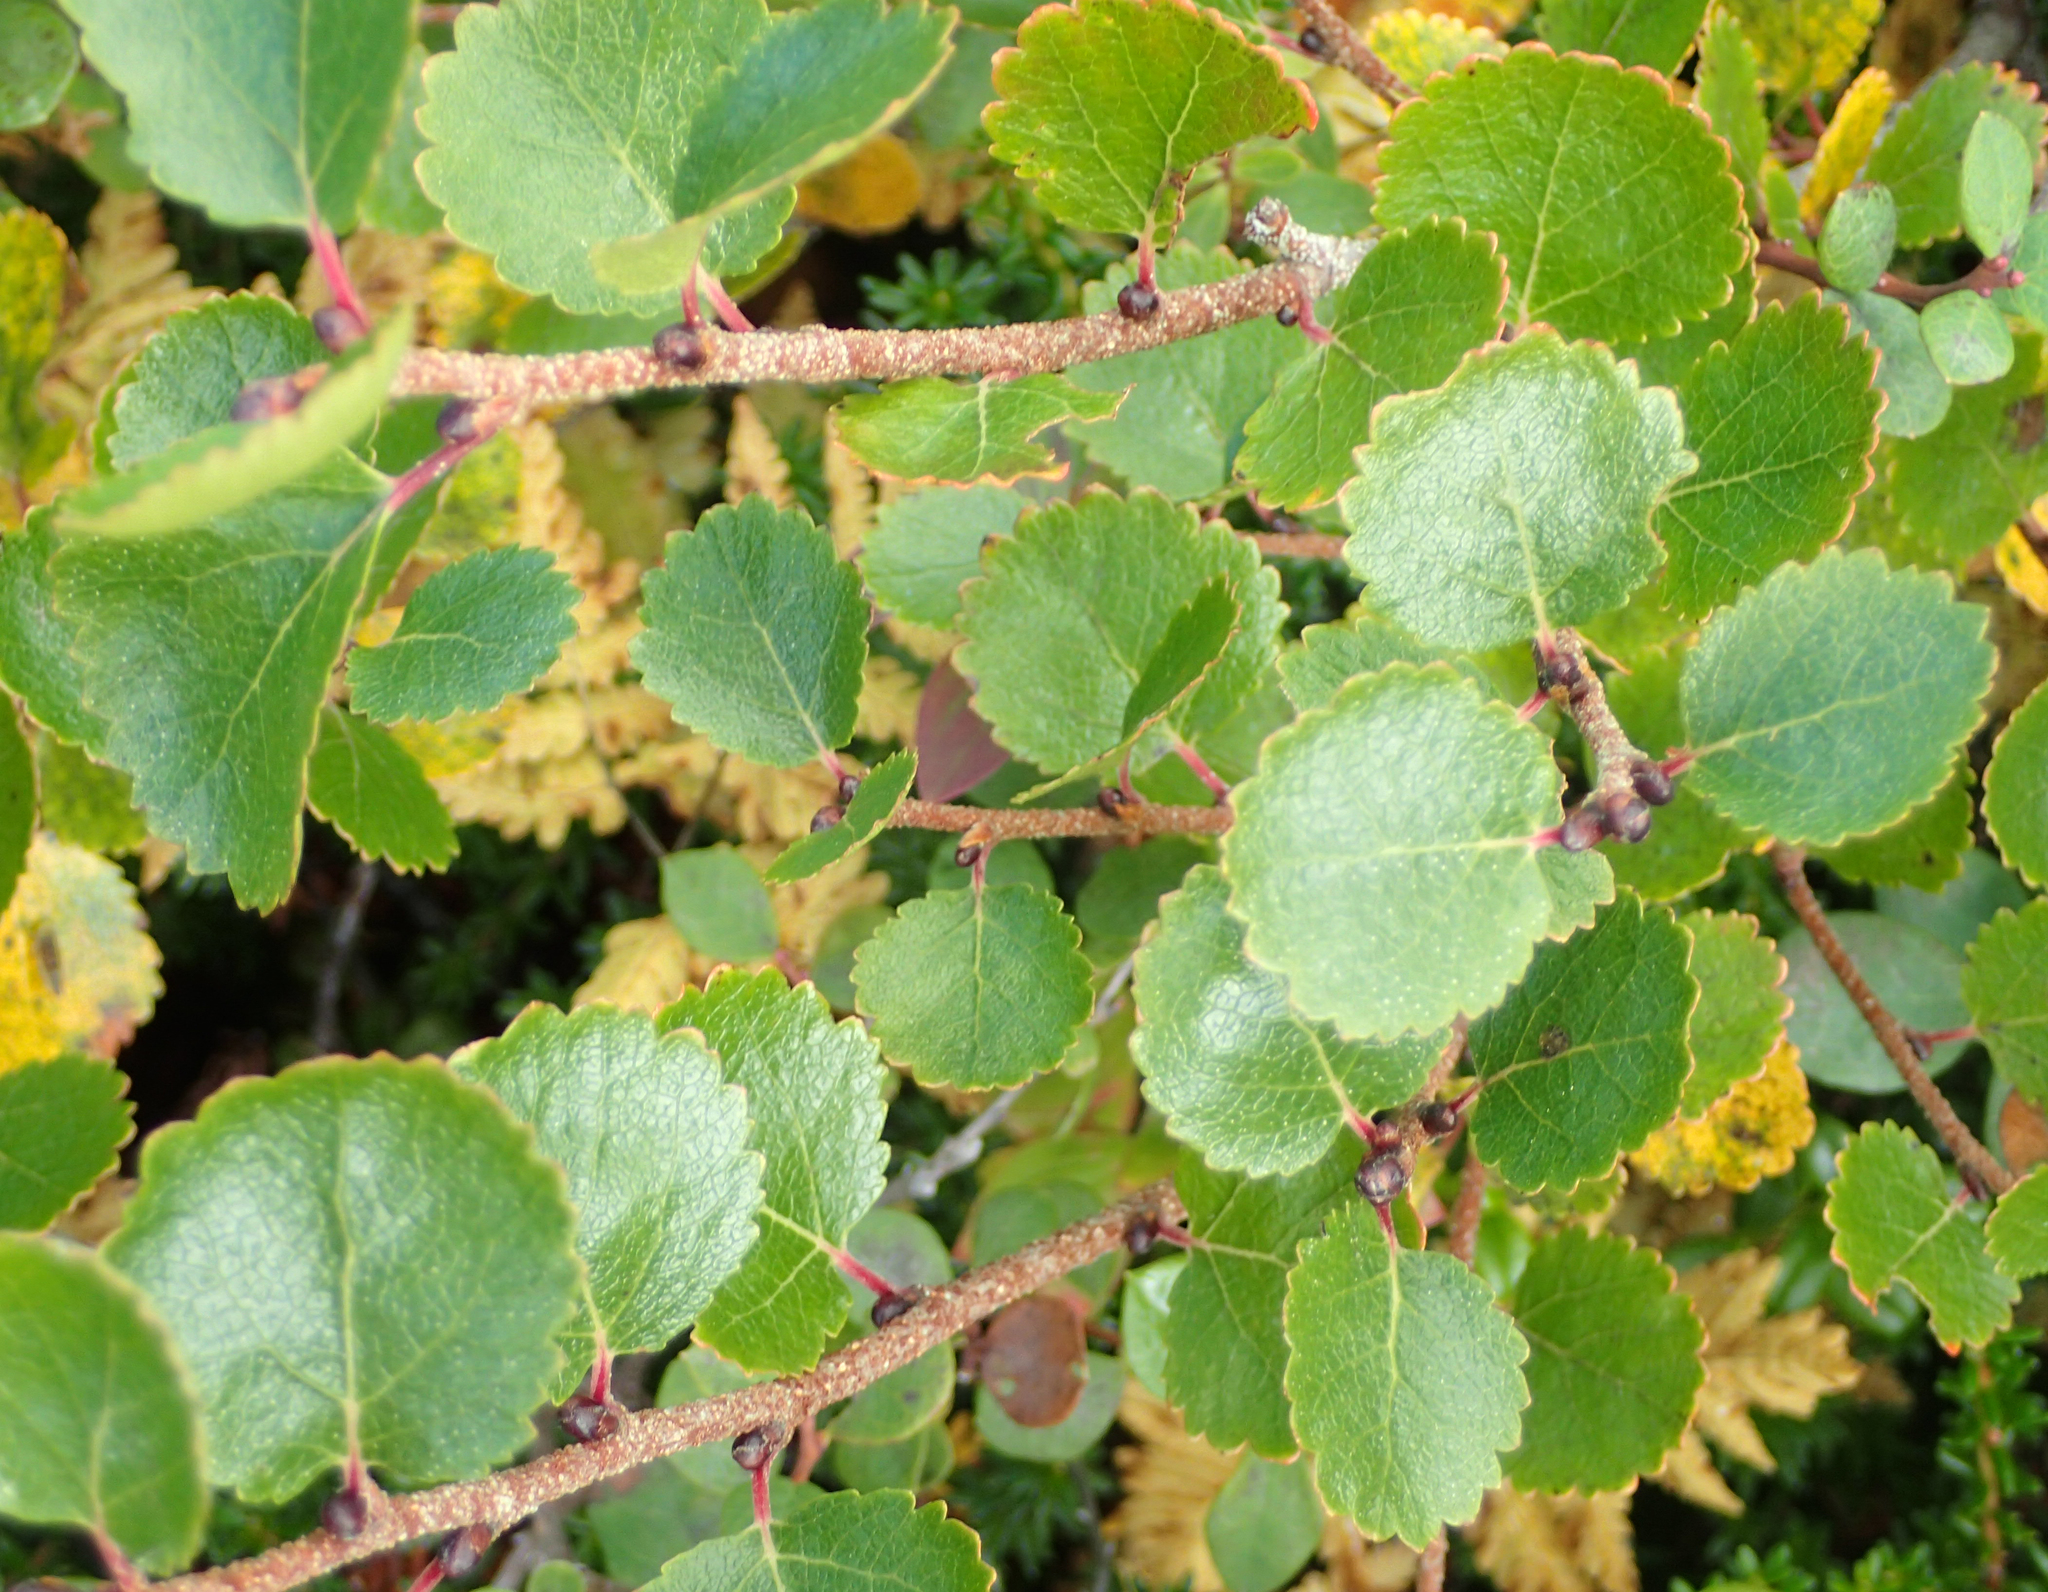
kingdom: Plantae
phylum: Tracheophyta
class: Magnoliopsida
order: Fagales
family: Betulaceae
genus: Betula
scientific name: Betula nana
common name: Arctic dwarf birch
